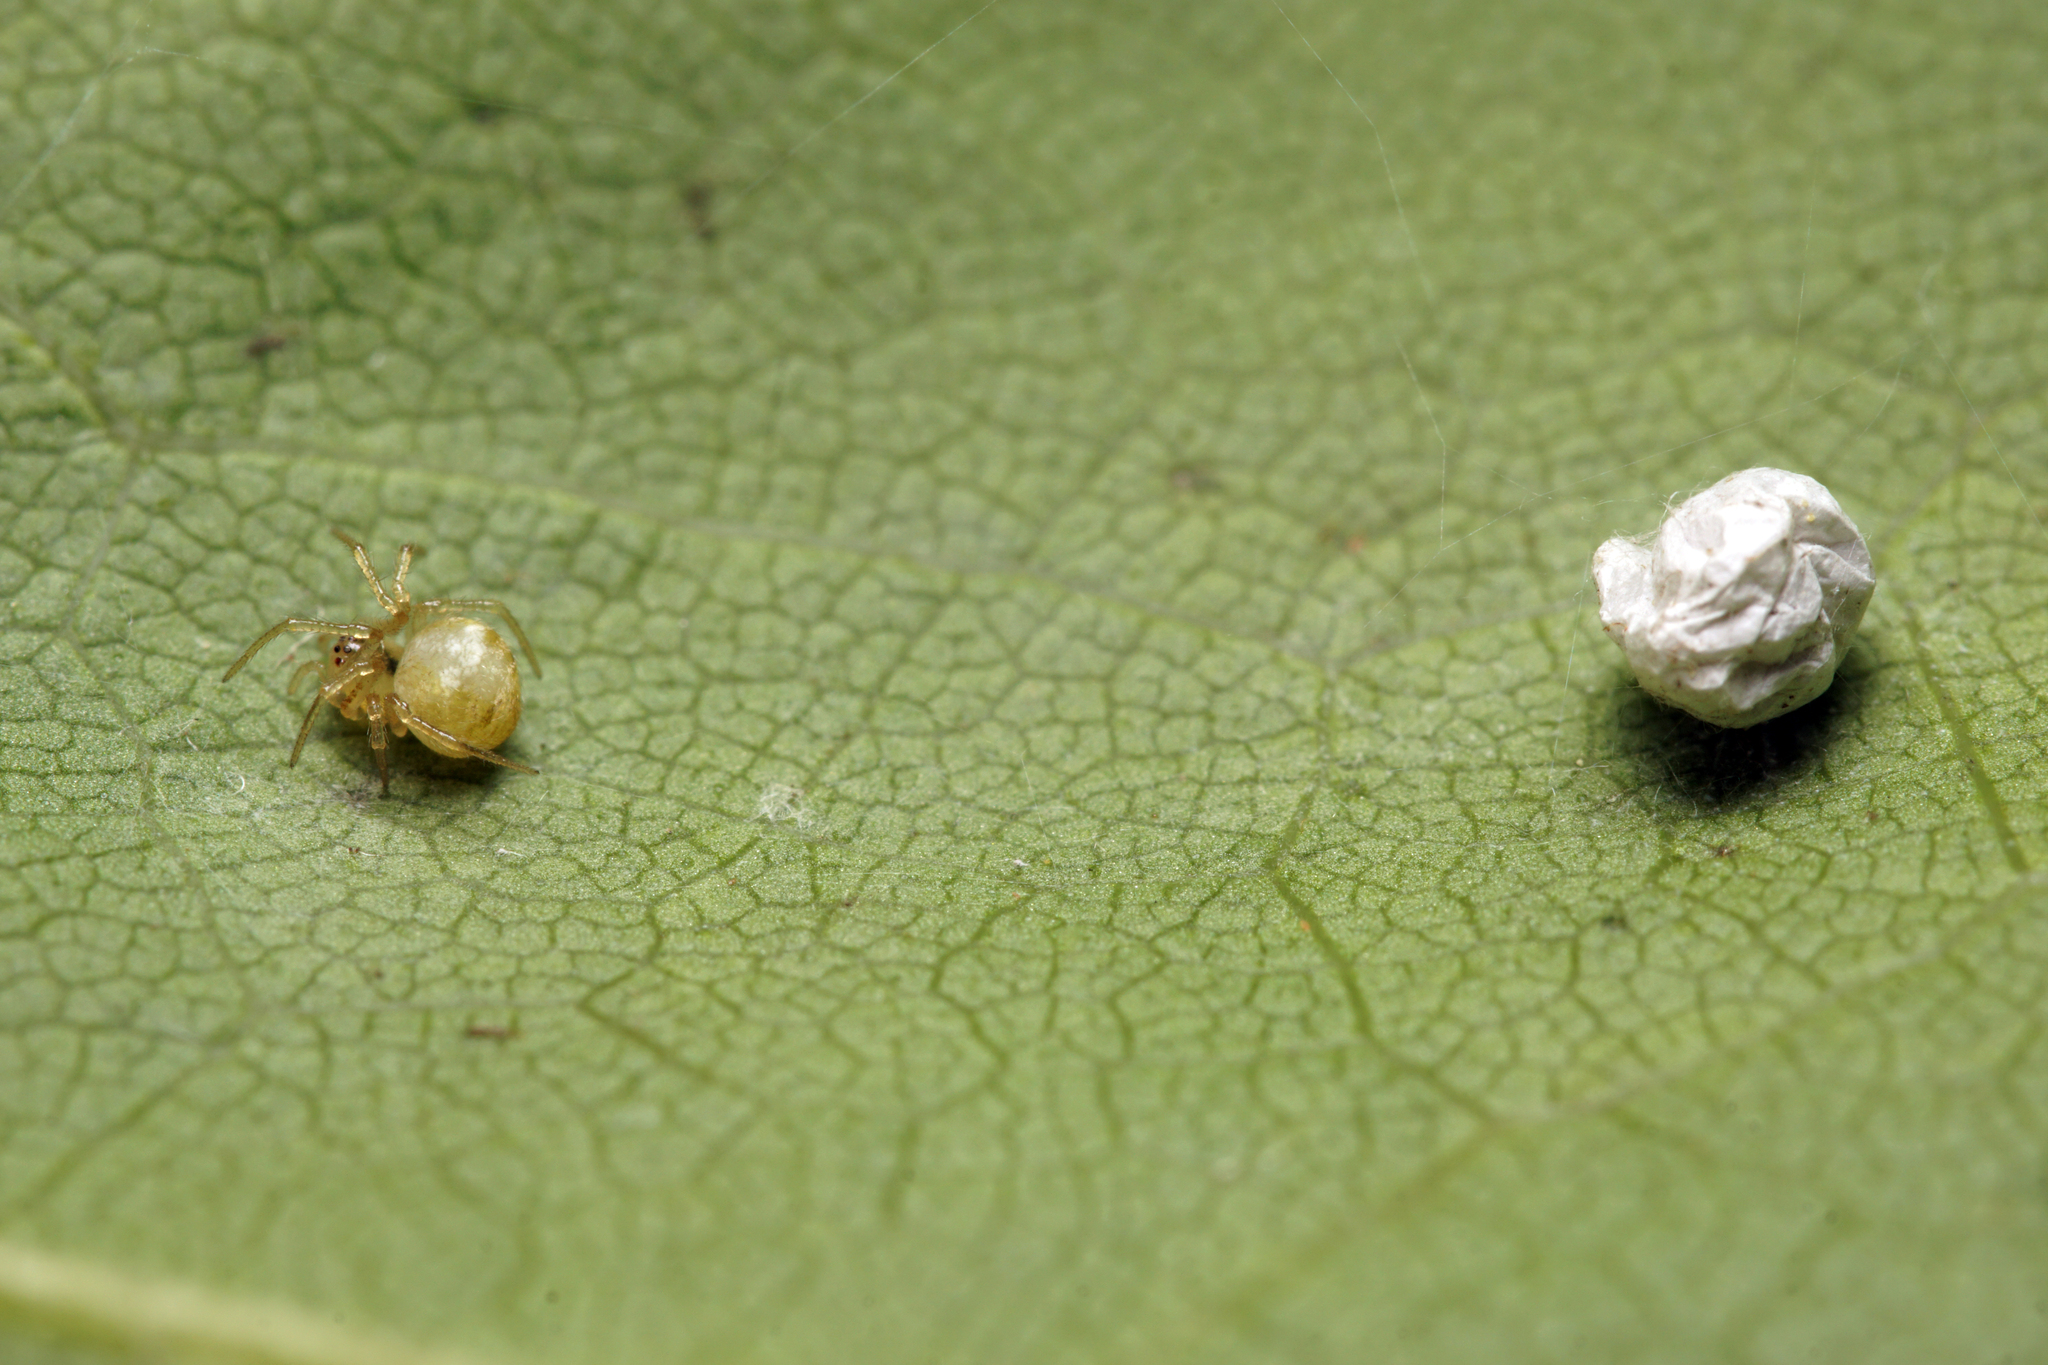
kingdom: Animalia
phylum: Arthropoda
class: Arachnida
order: Araneae
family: Theridiidae
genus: Paidiscura
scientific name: Paidiscura pallens
